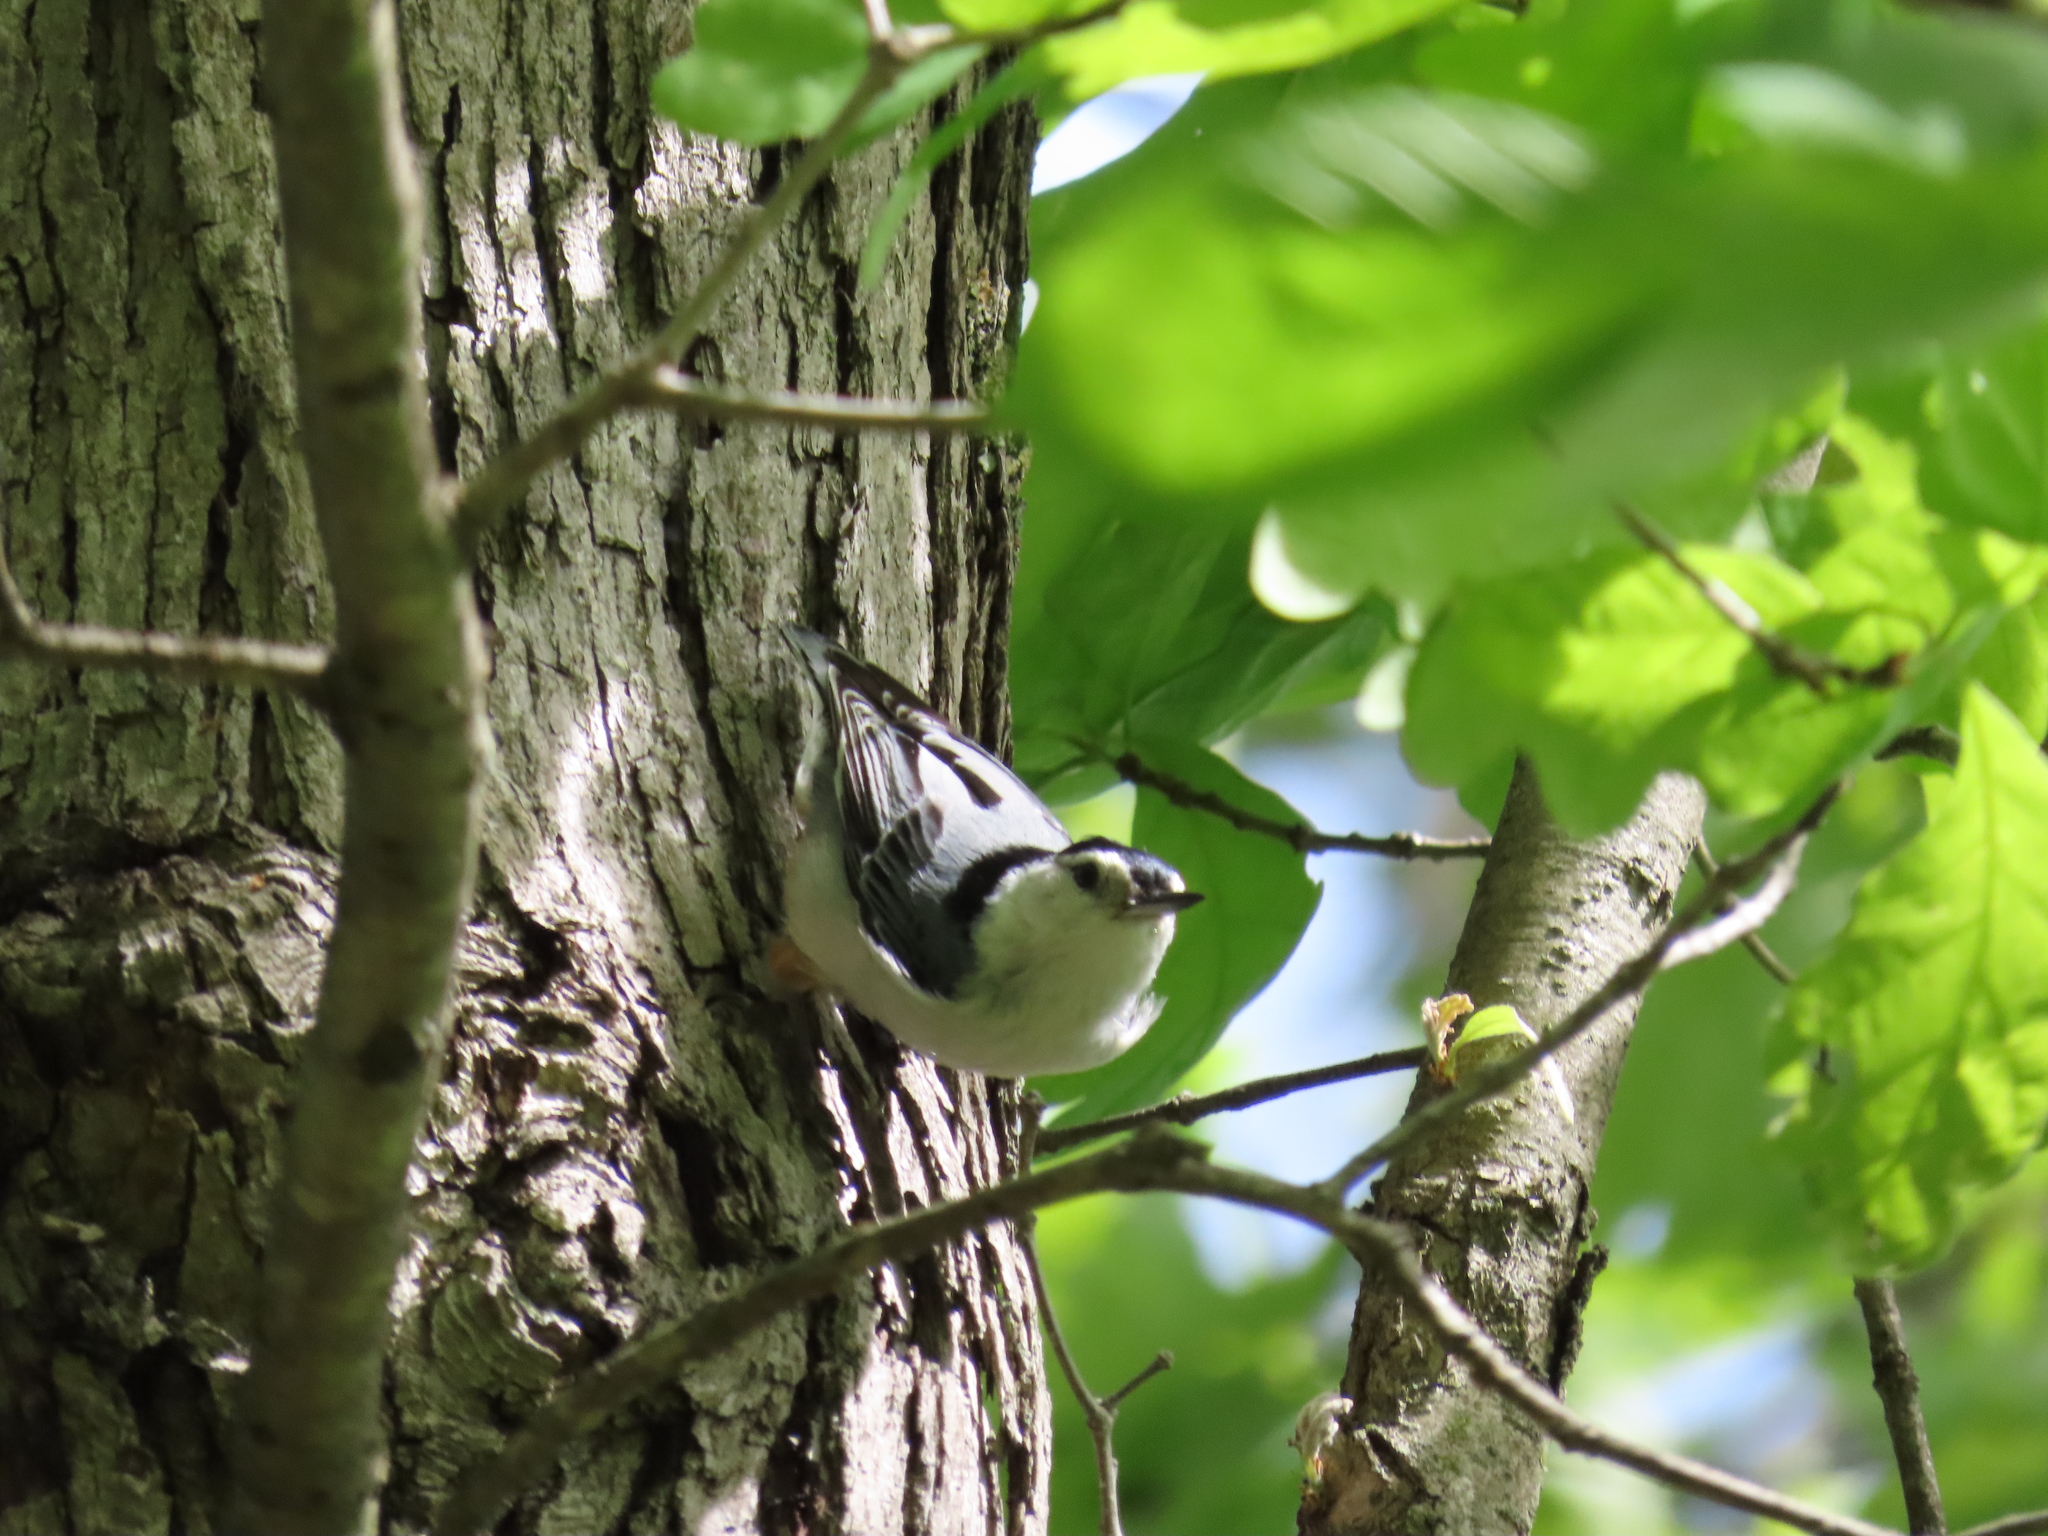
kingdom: Animalia
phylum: Chordata
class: Aves
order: Passeriformes
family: Sittidae
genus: Sitta
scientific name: Sitta carolinensis
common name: White-breasted nuthatch
